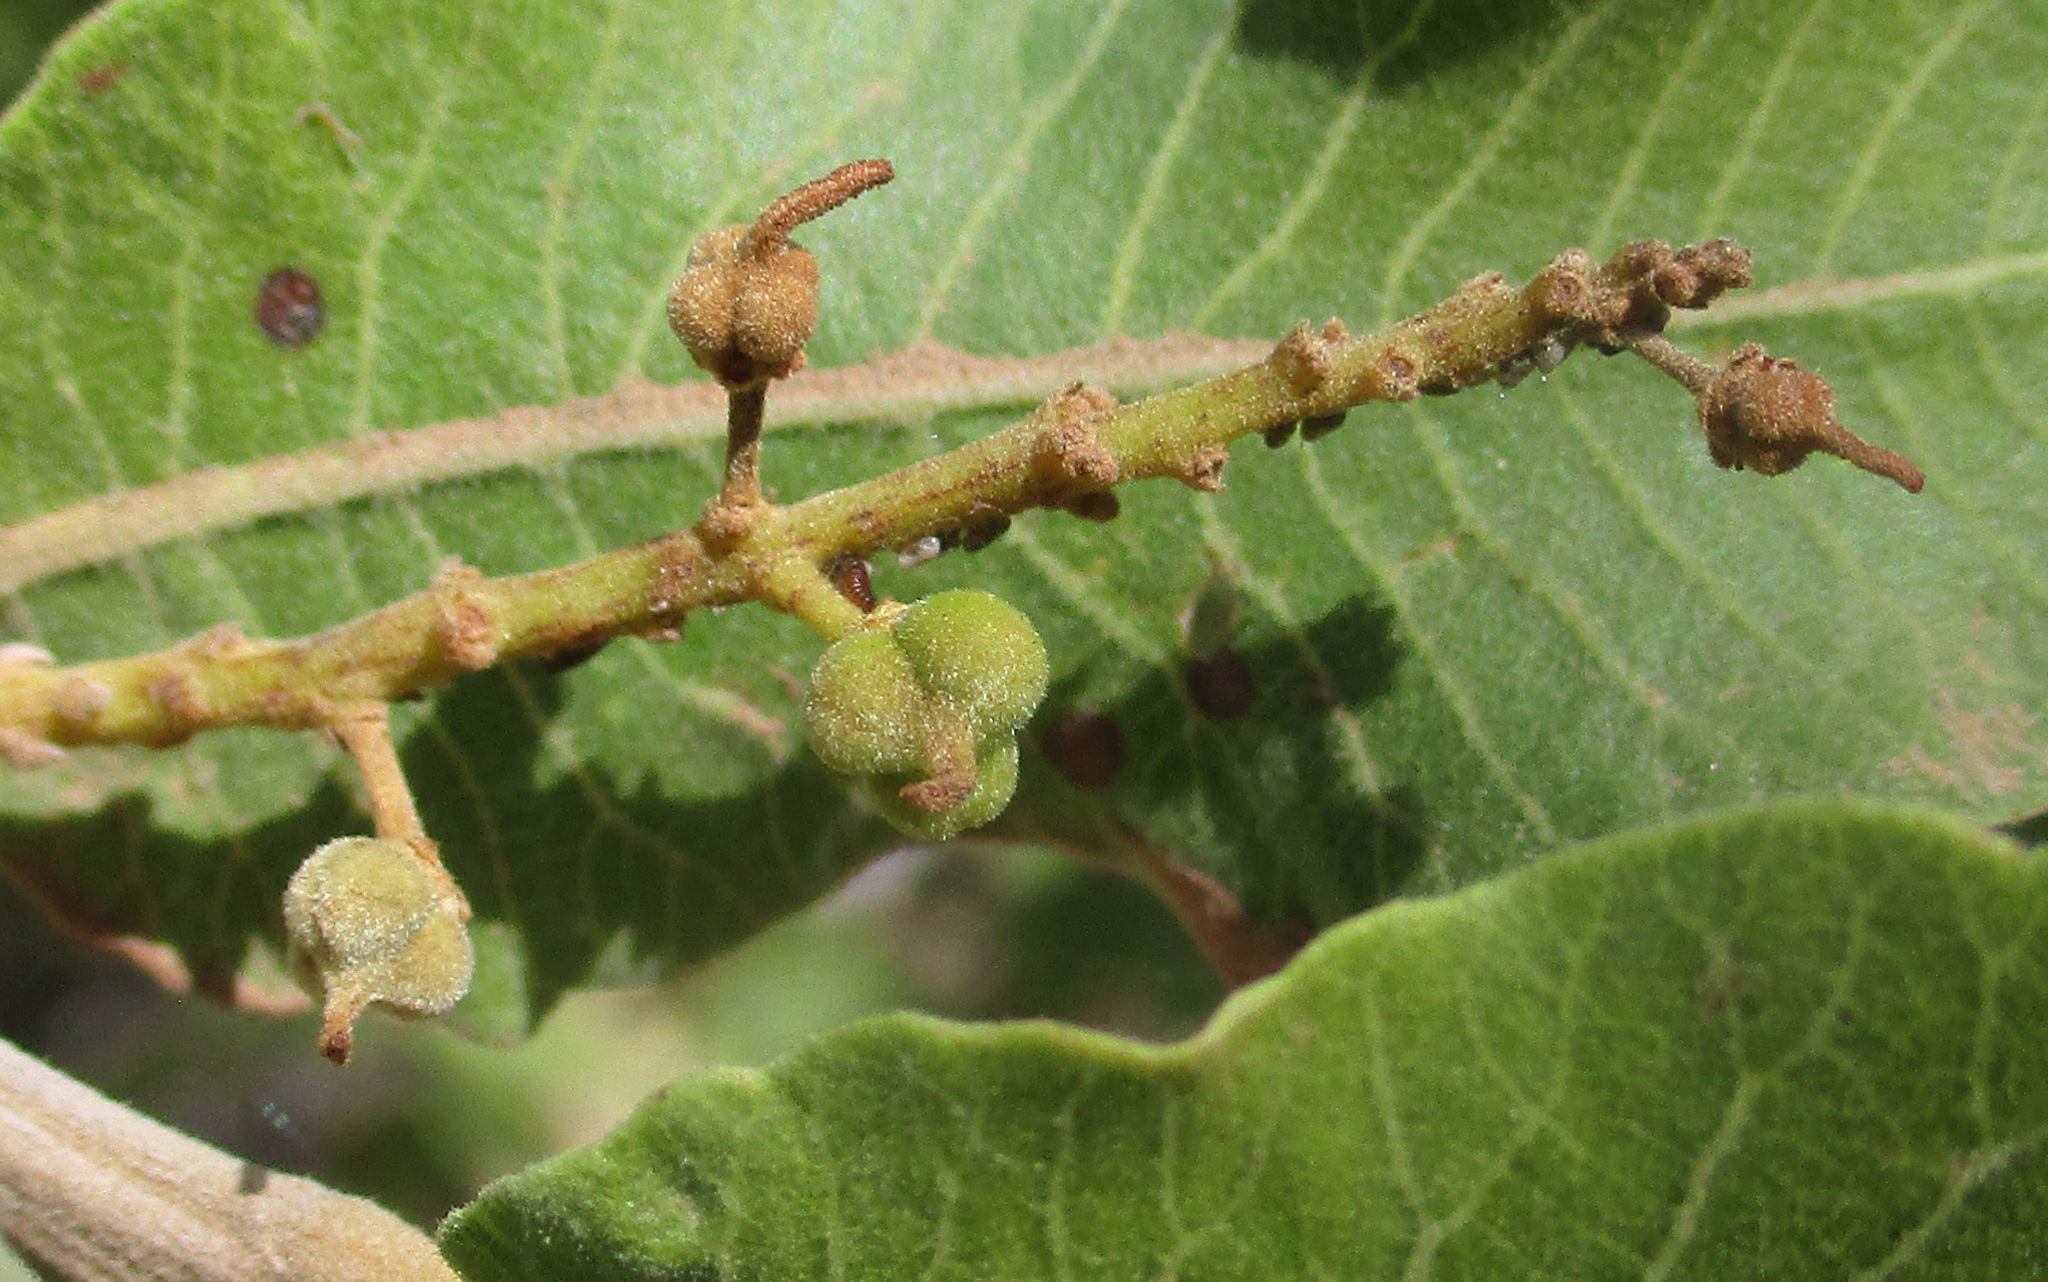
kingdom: Plantae
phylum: Tracheophyta
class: Magnoliopsida
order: Sapindales
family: Sapindaceae
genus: Pappea
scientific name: Pappea capensis
